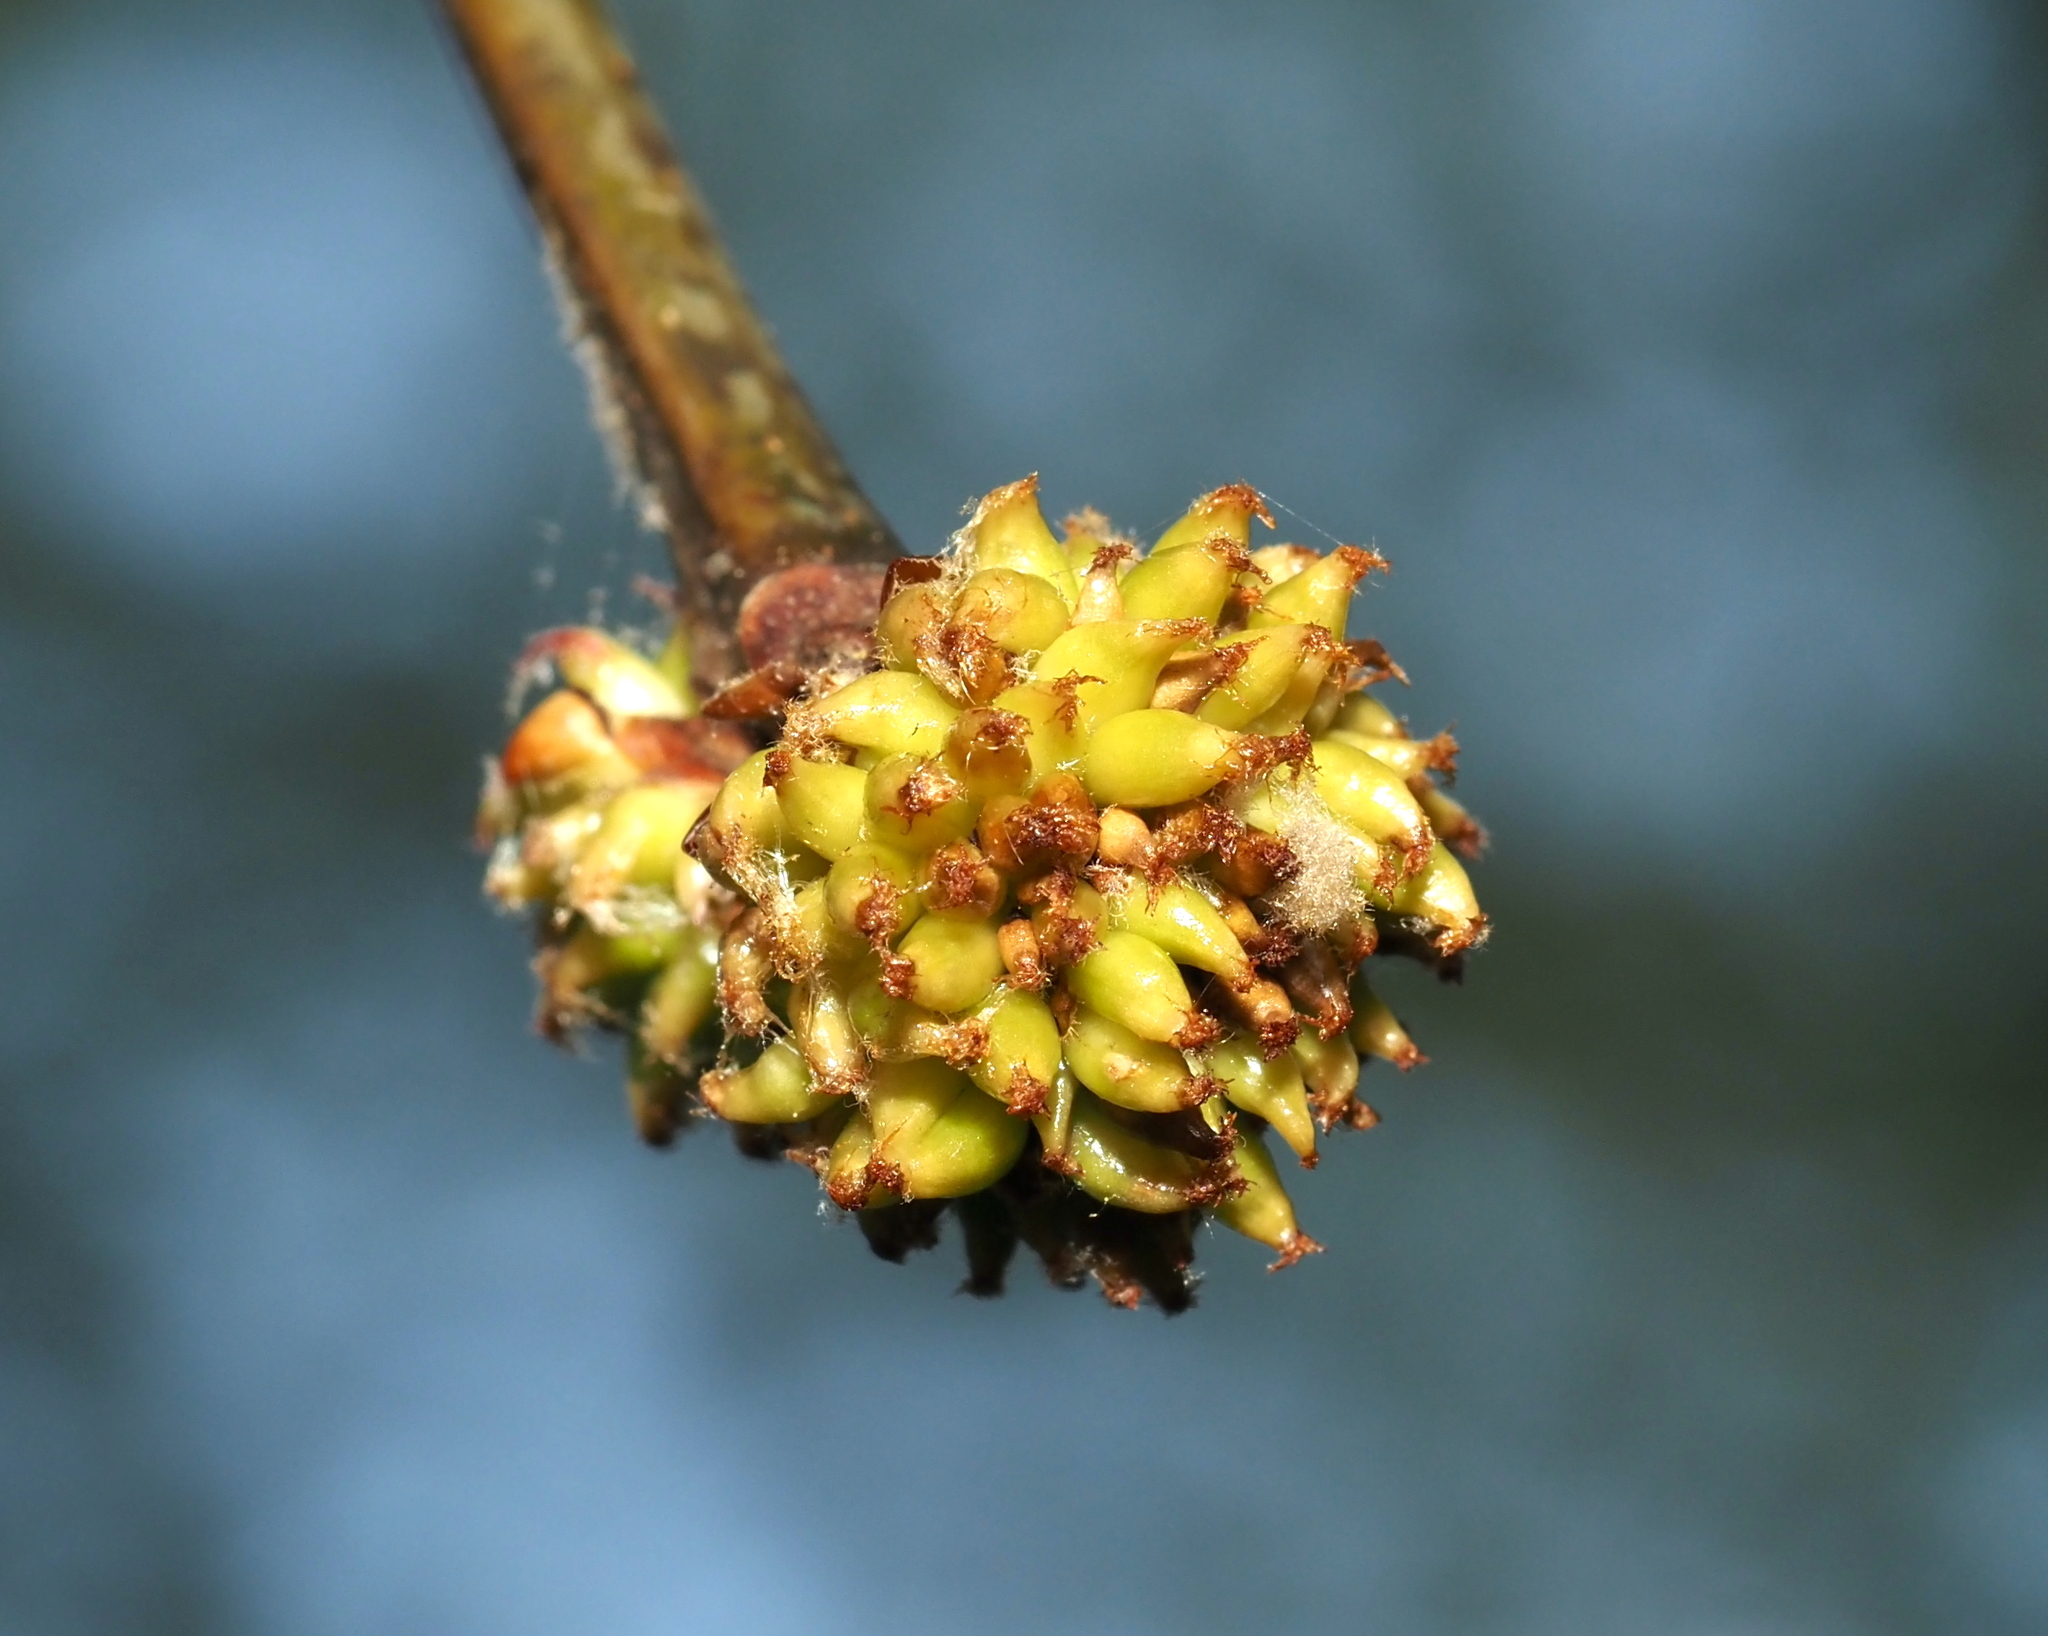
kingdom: Animalia
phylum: Arthropoda
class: Insecta
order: Hymenoptera
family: Cynipidae
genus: Callirhytis
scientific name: Callirhytis
